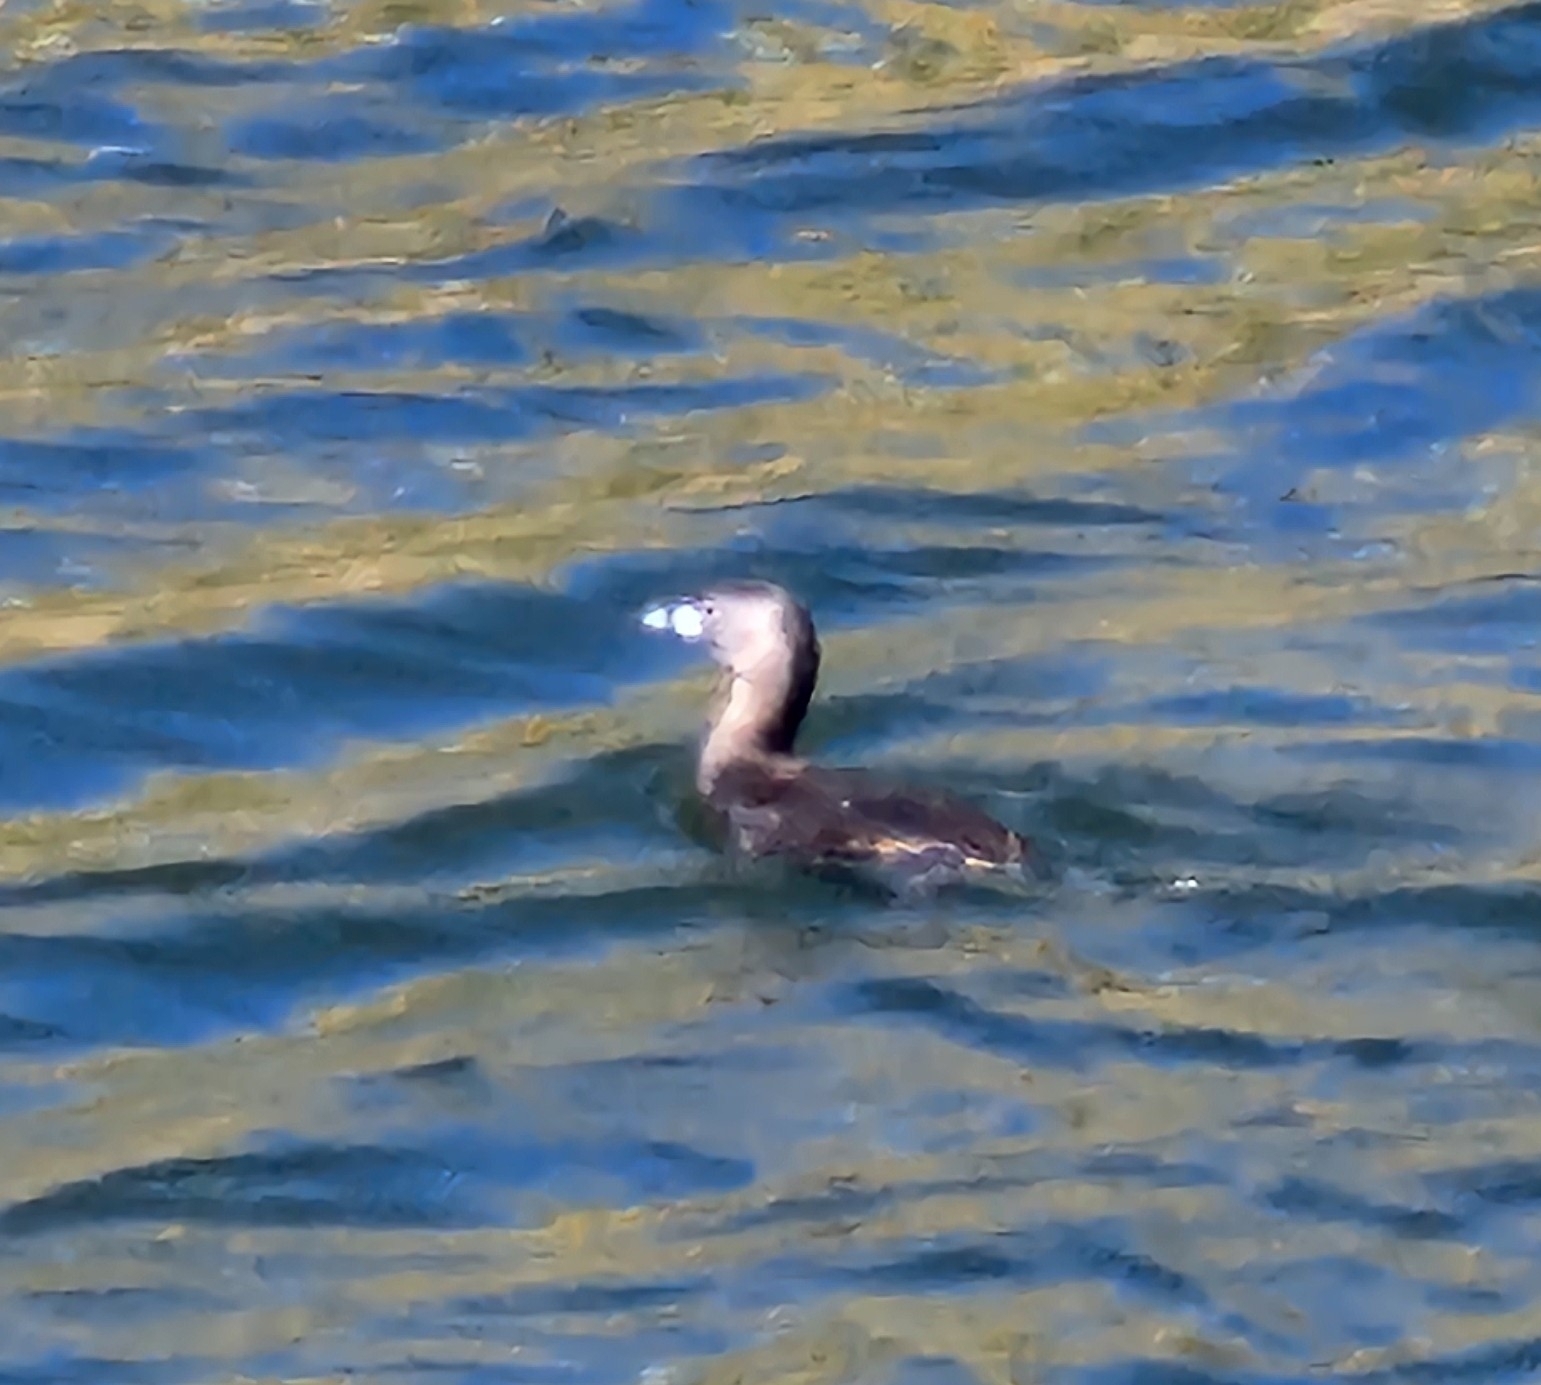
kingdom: Animalia
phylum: Chordata
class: Aves
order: Podicipediformes
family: Podicipedidae
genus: Podilymbus
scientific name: Podilymbus podiceps
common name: Pied-billed grebe
